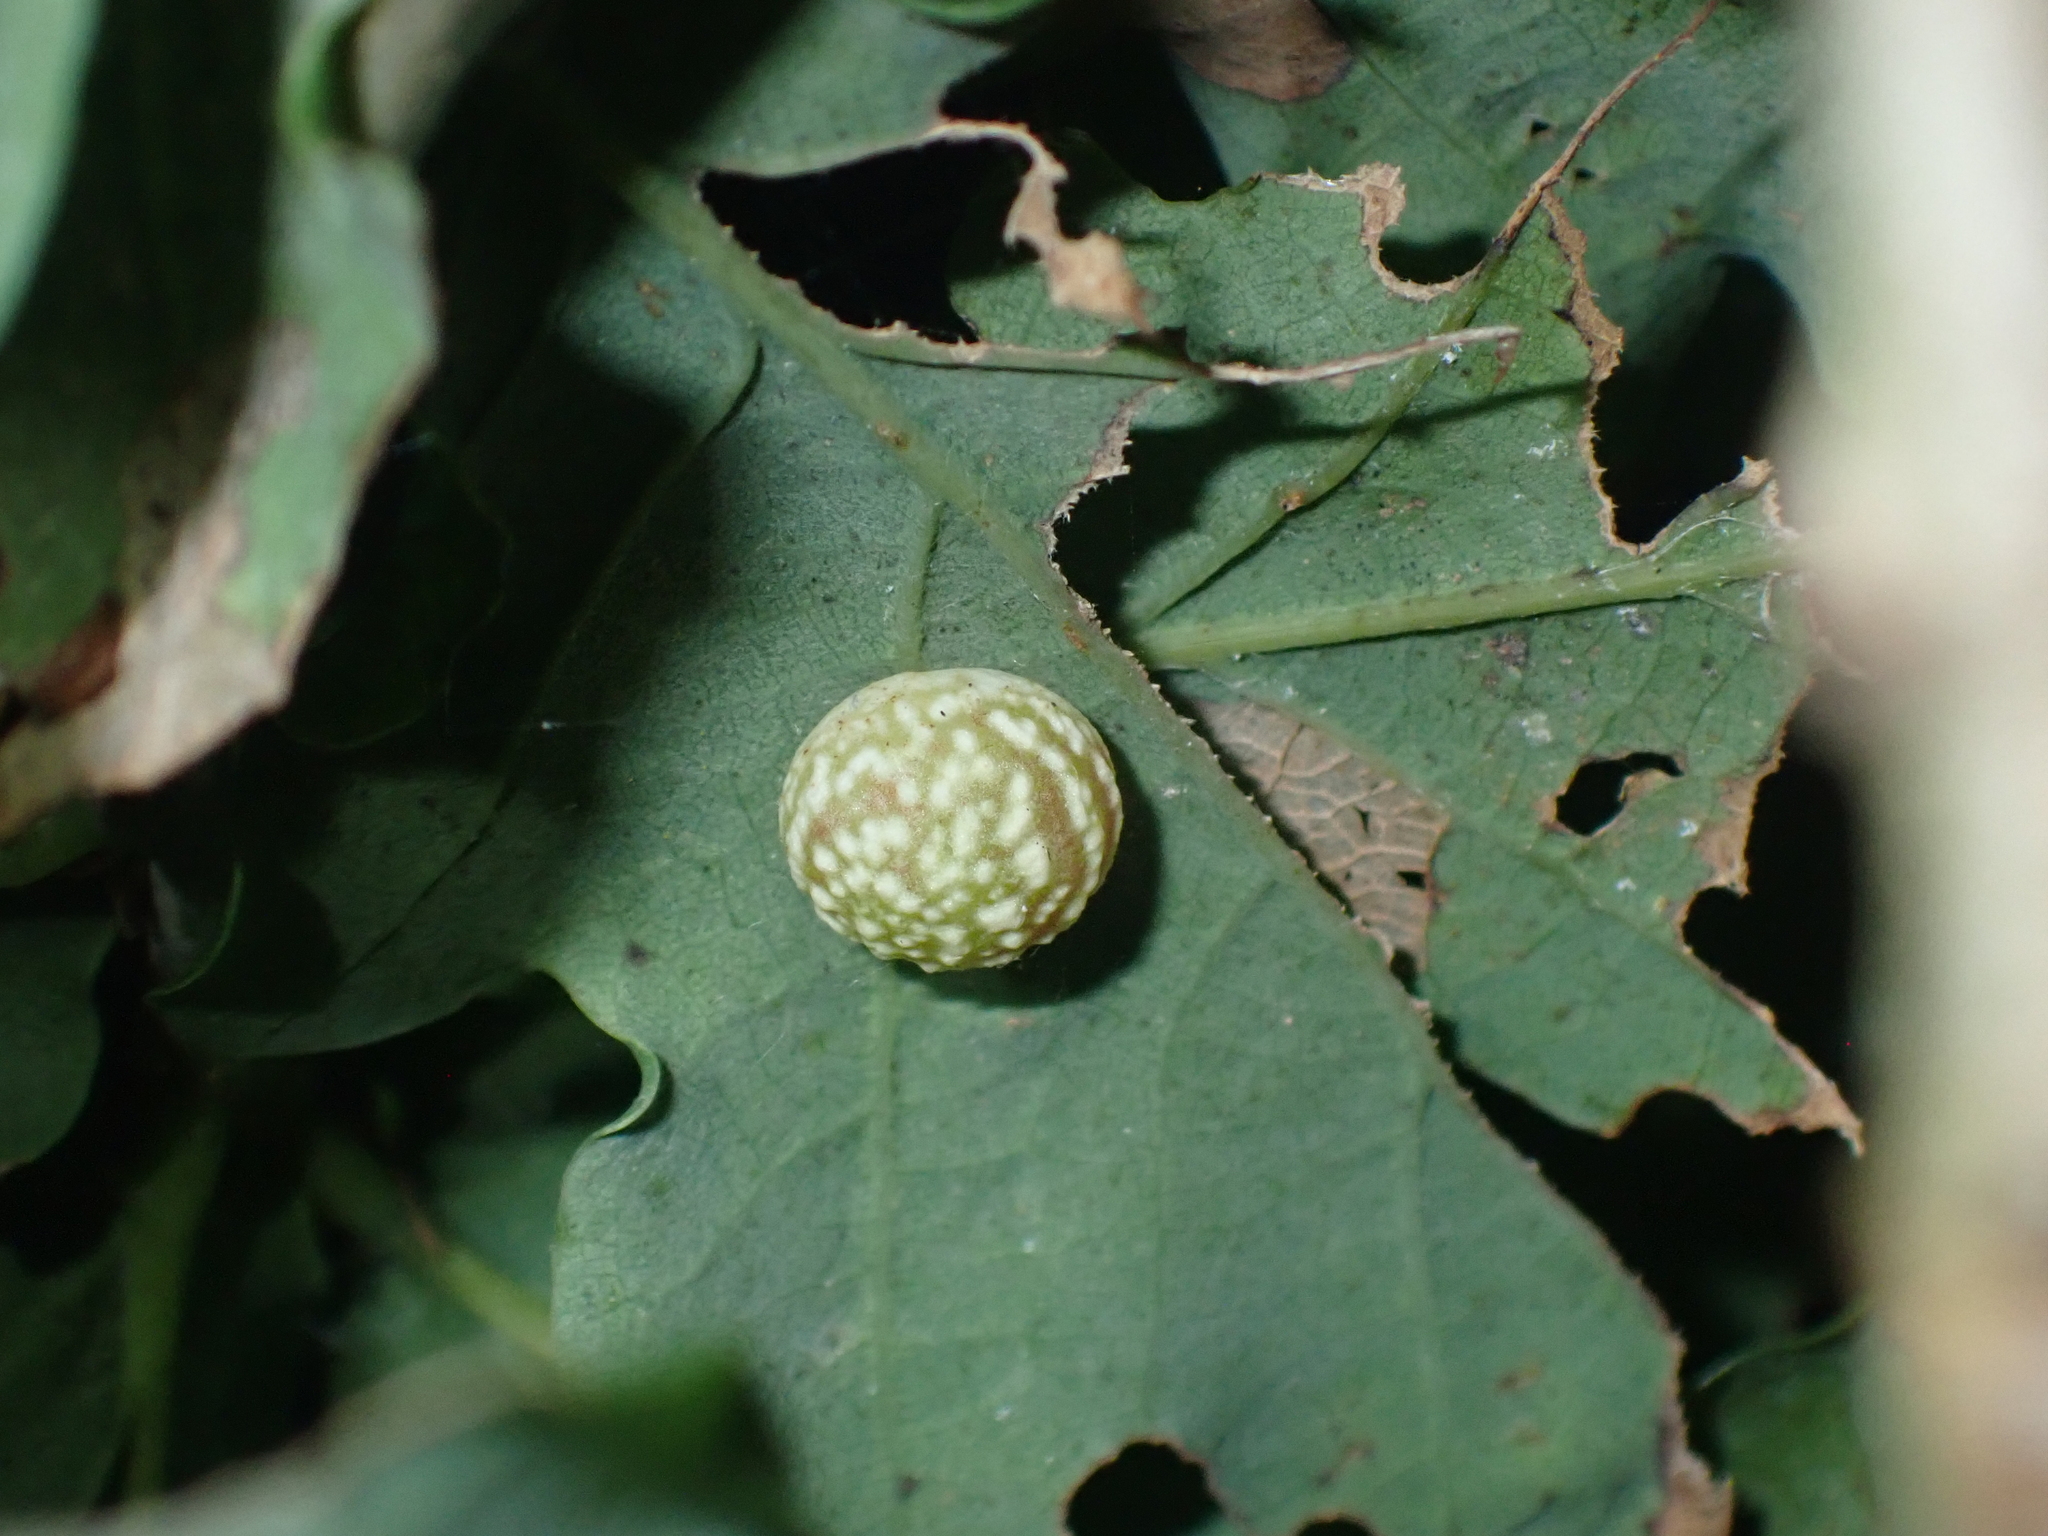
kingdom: Animalia
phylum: Arthropoda
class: Insecta
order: Hymenoptera
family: Cynipidae
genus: Cynips
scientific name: Cynips longiventris
